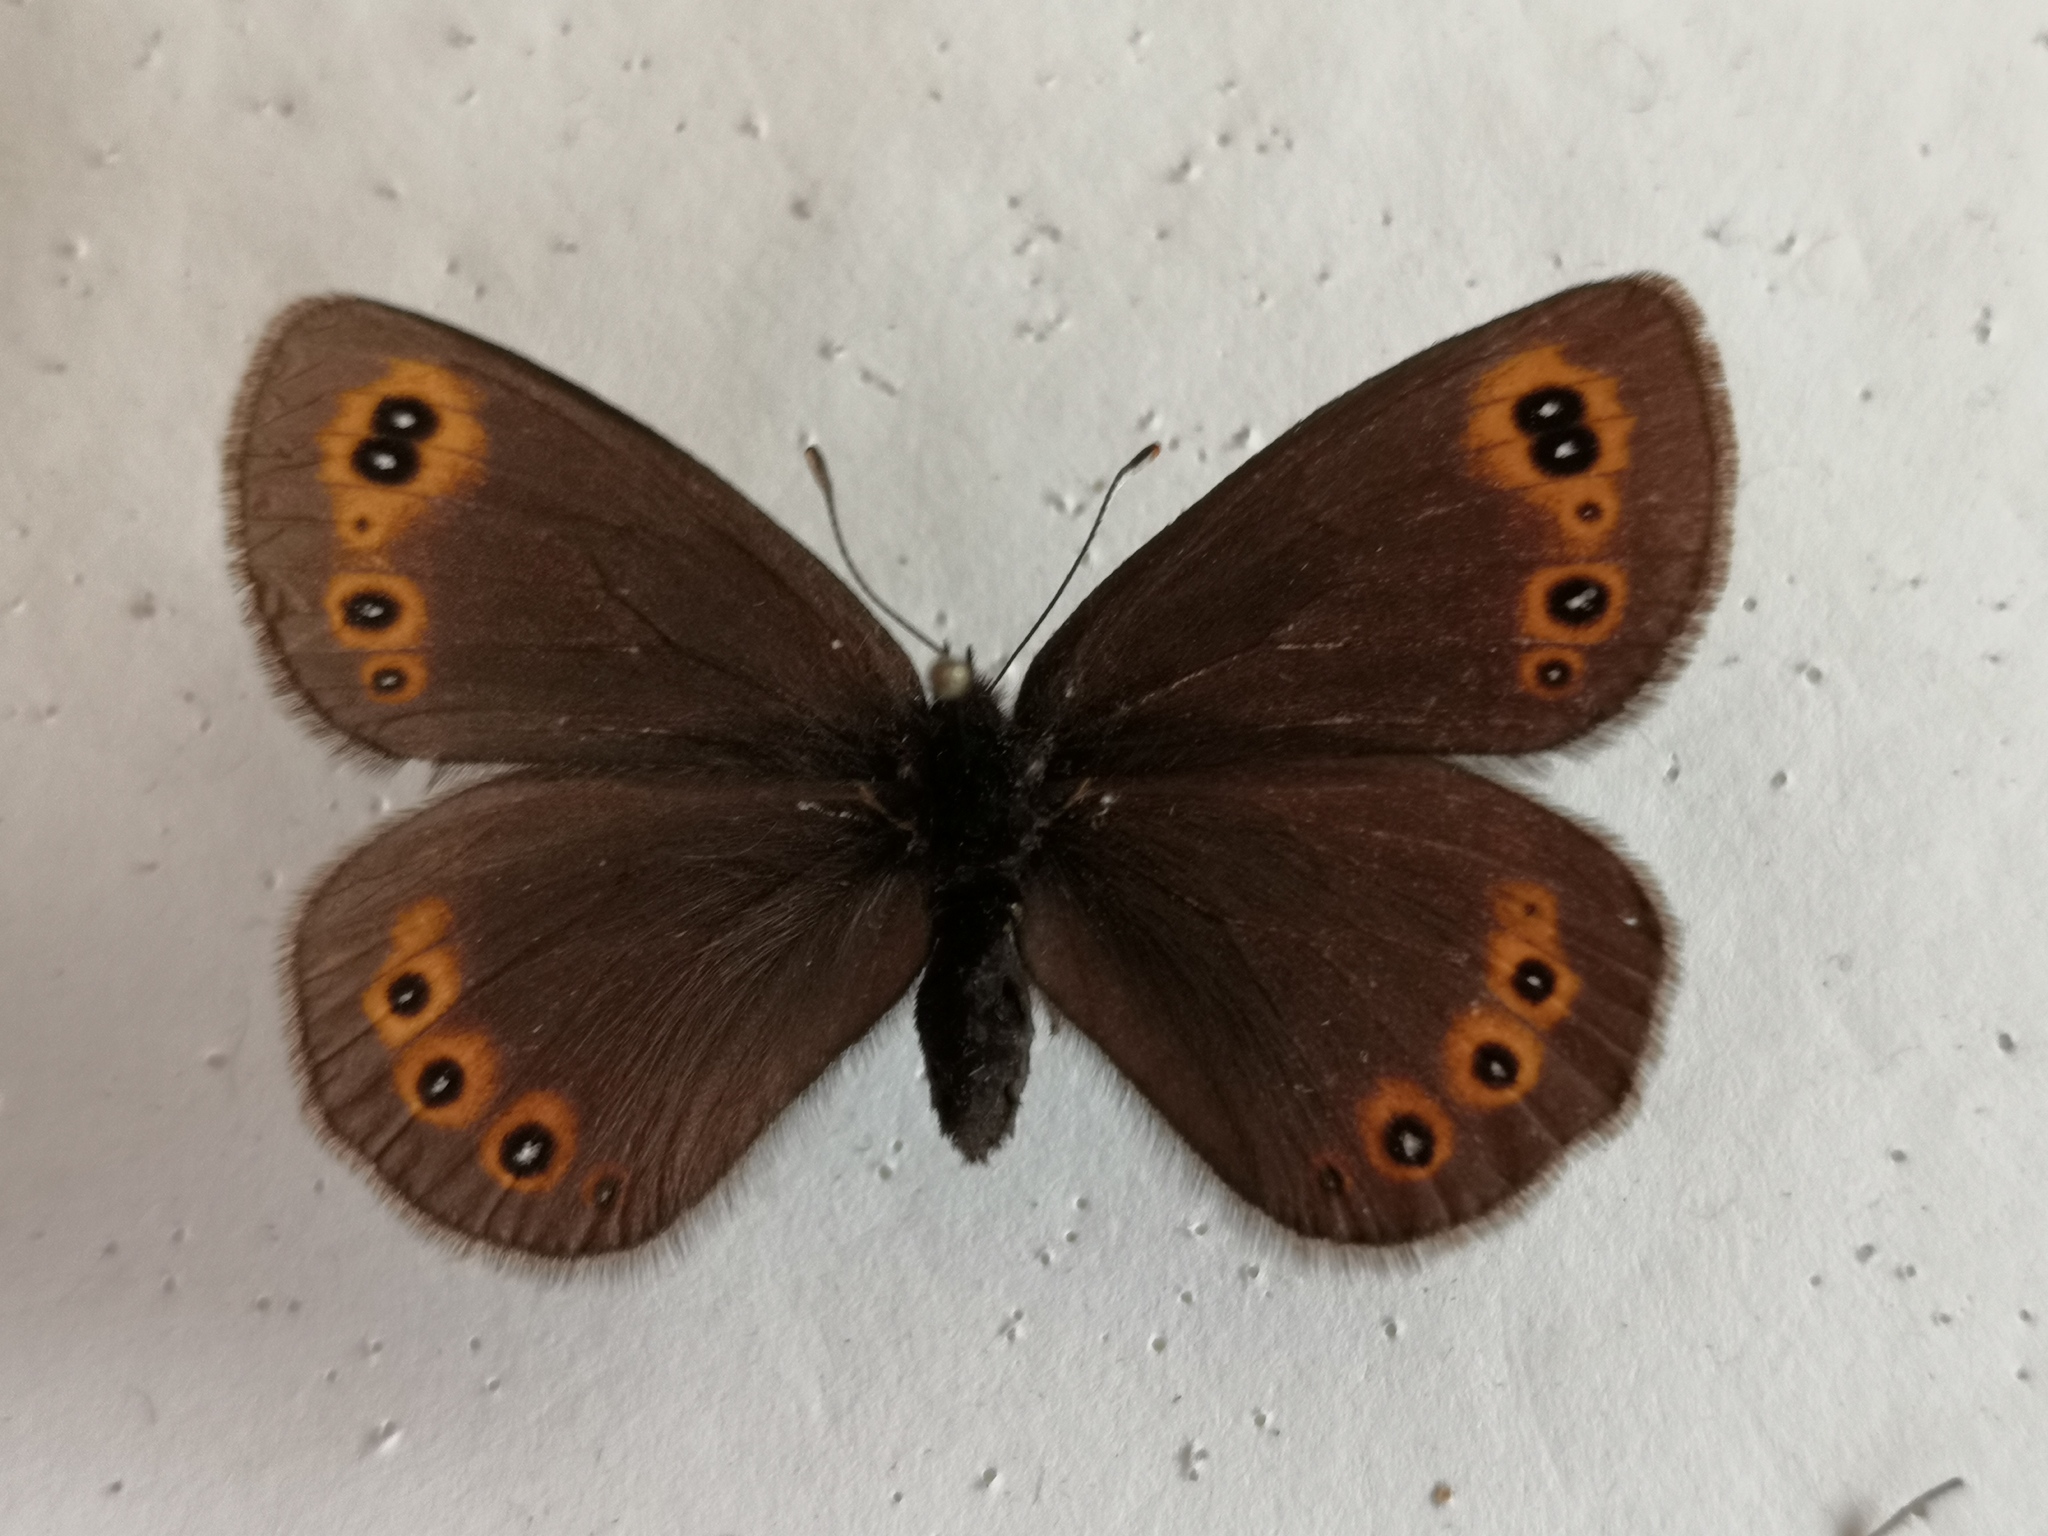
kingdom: Animalia
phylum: Arthropoda
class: Insecta
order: Lepidoptera
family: Nymphalidae
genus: Erebia
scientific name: Erebia medusa
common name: Woodland ringlet
